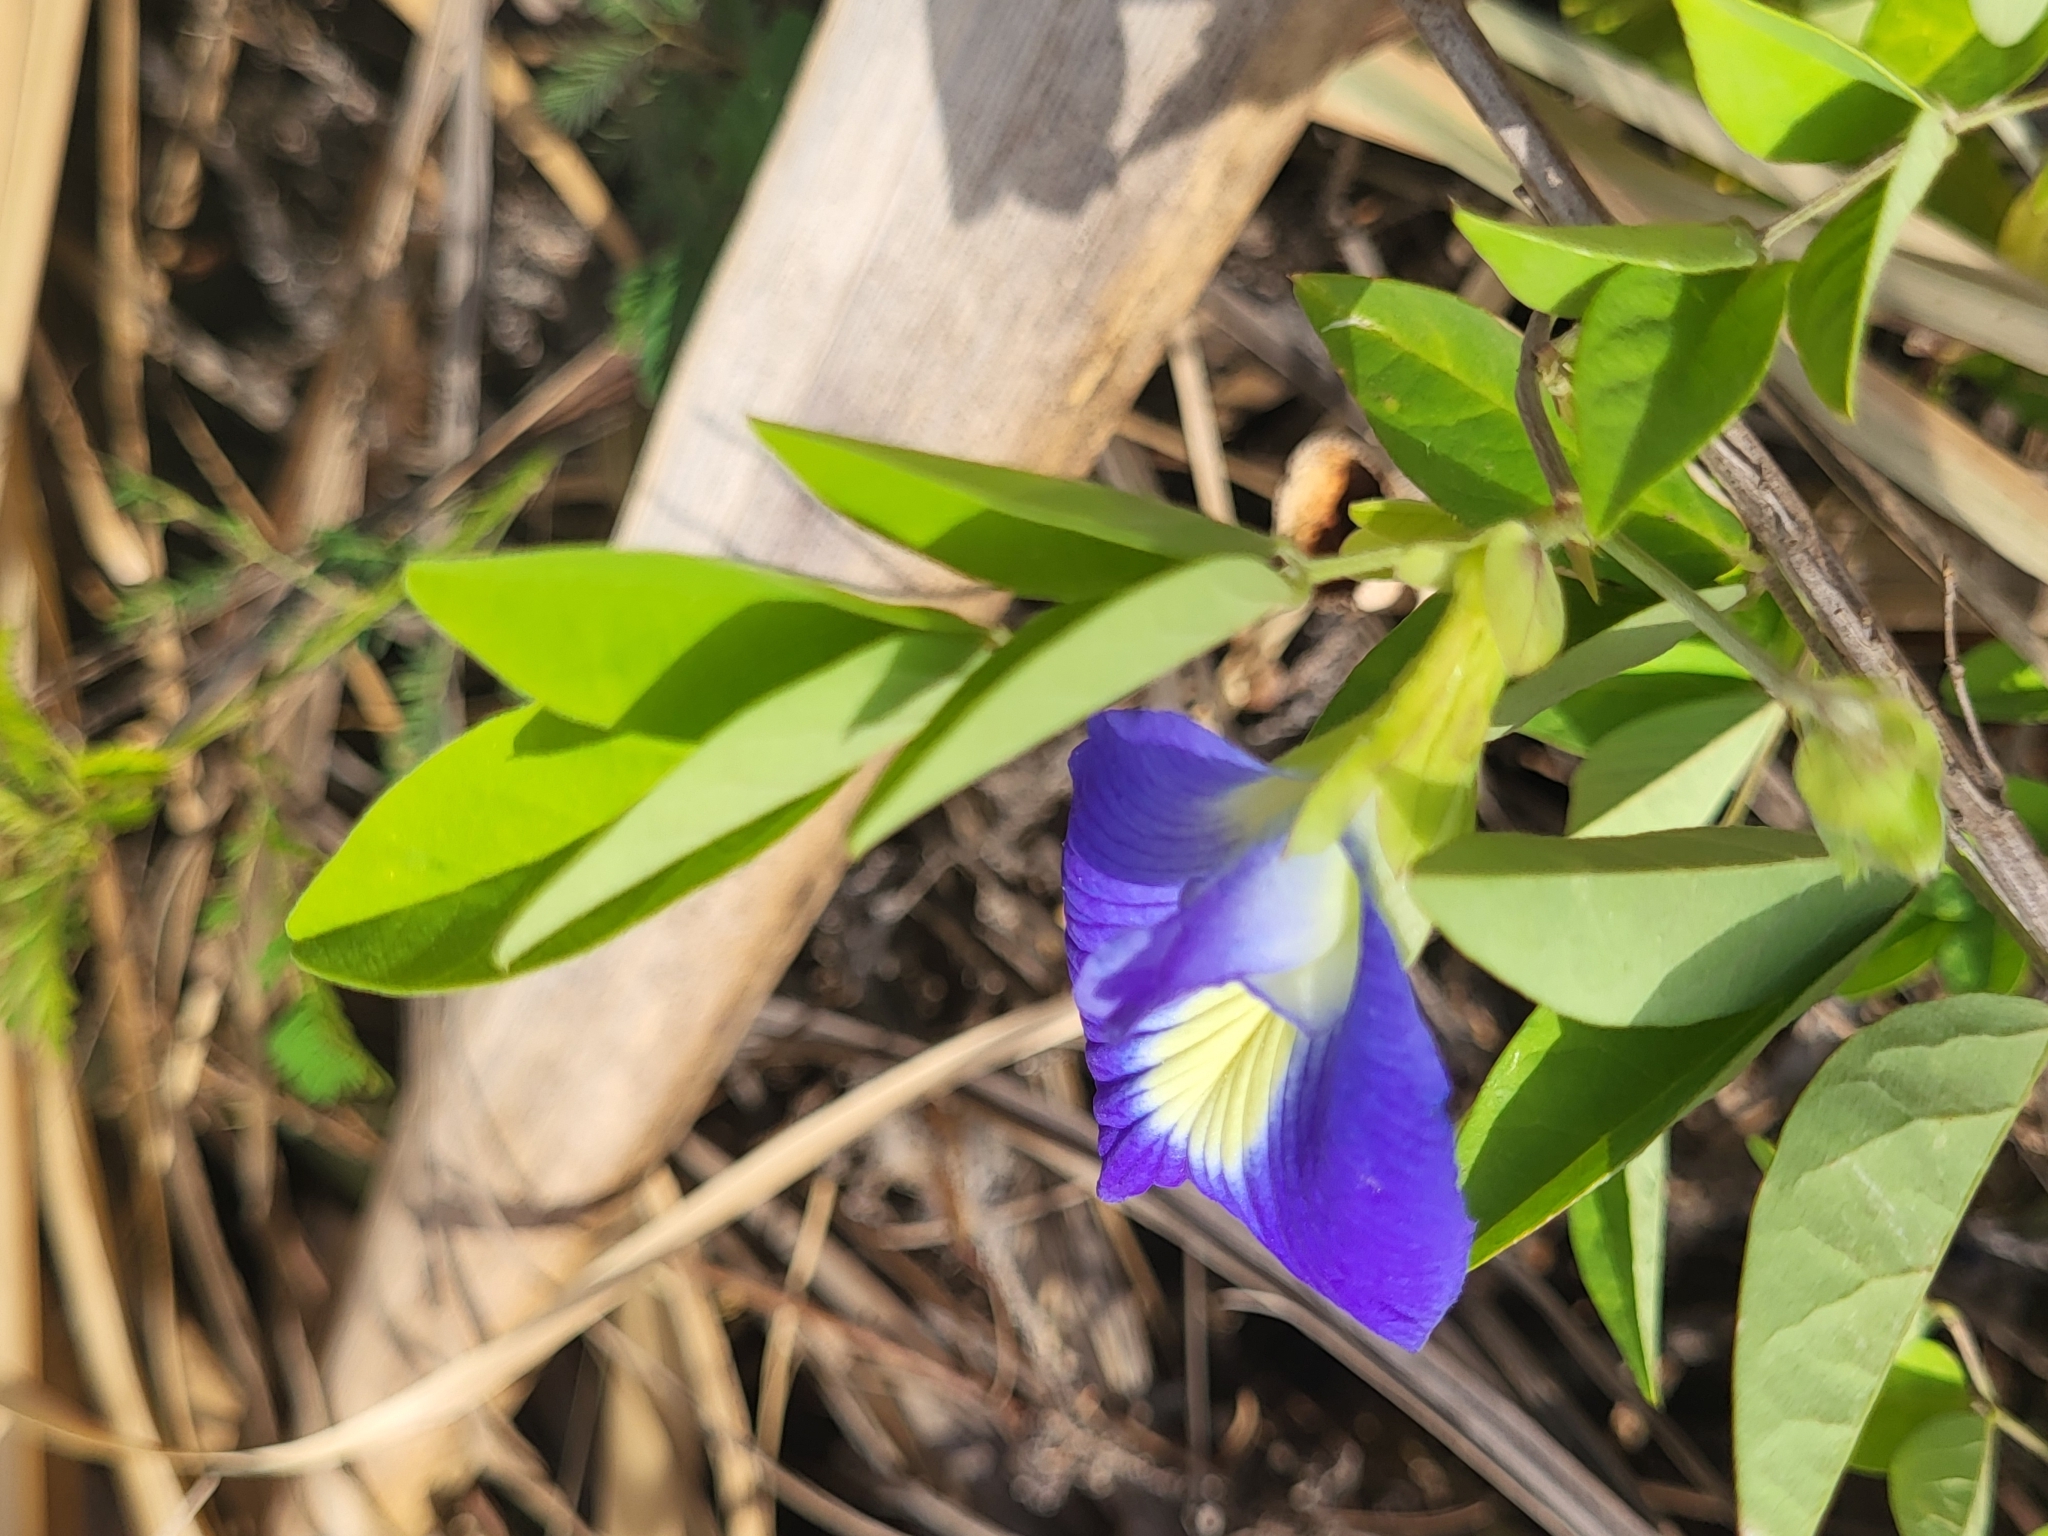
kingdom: Plantae
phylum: Tracheophyta
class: Magnoliopsida
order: Fabales
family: Fabaceae
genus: Clitoria
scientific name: Clitoria ternatea
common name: Asian pigeonwings
